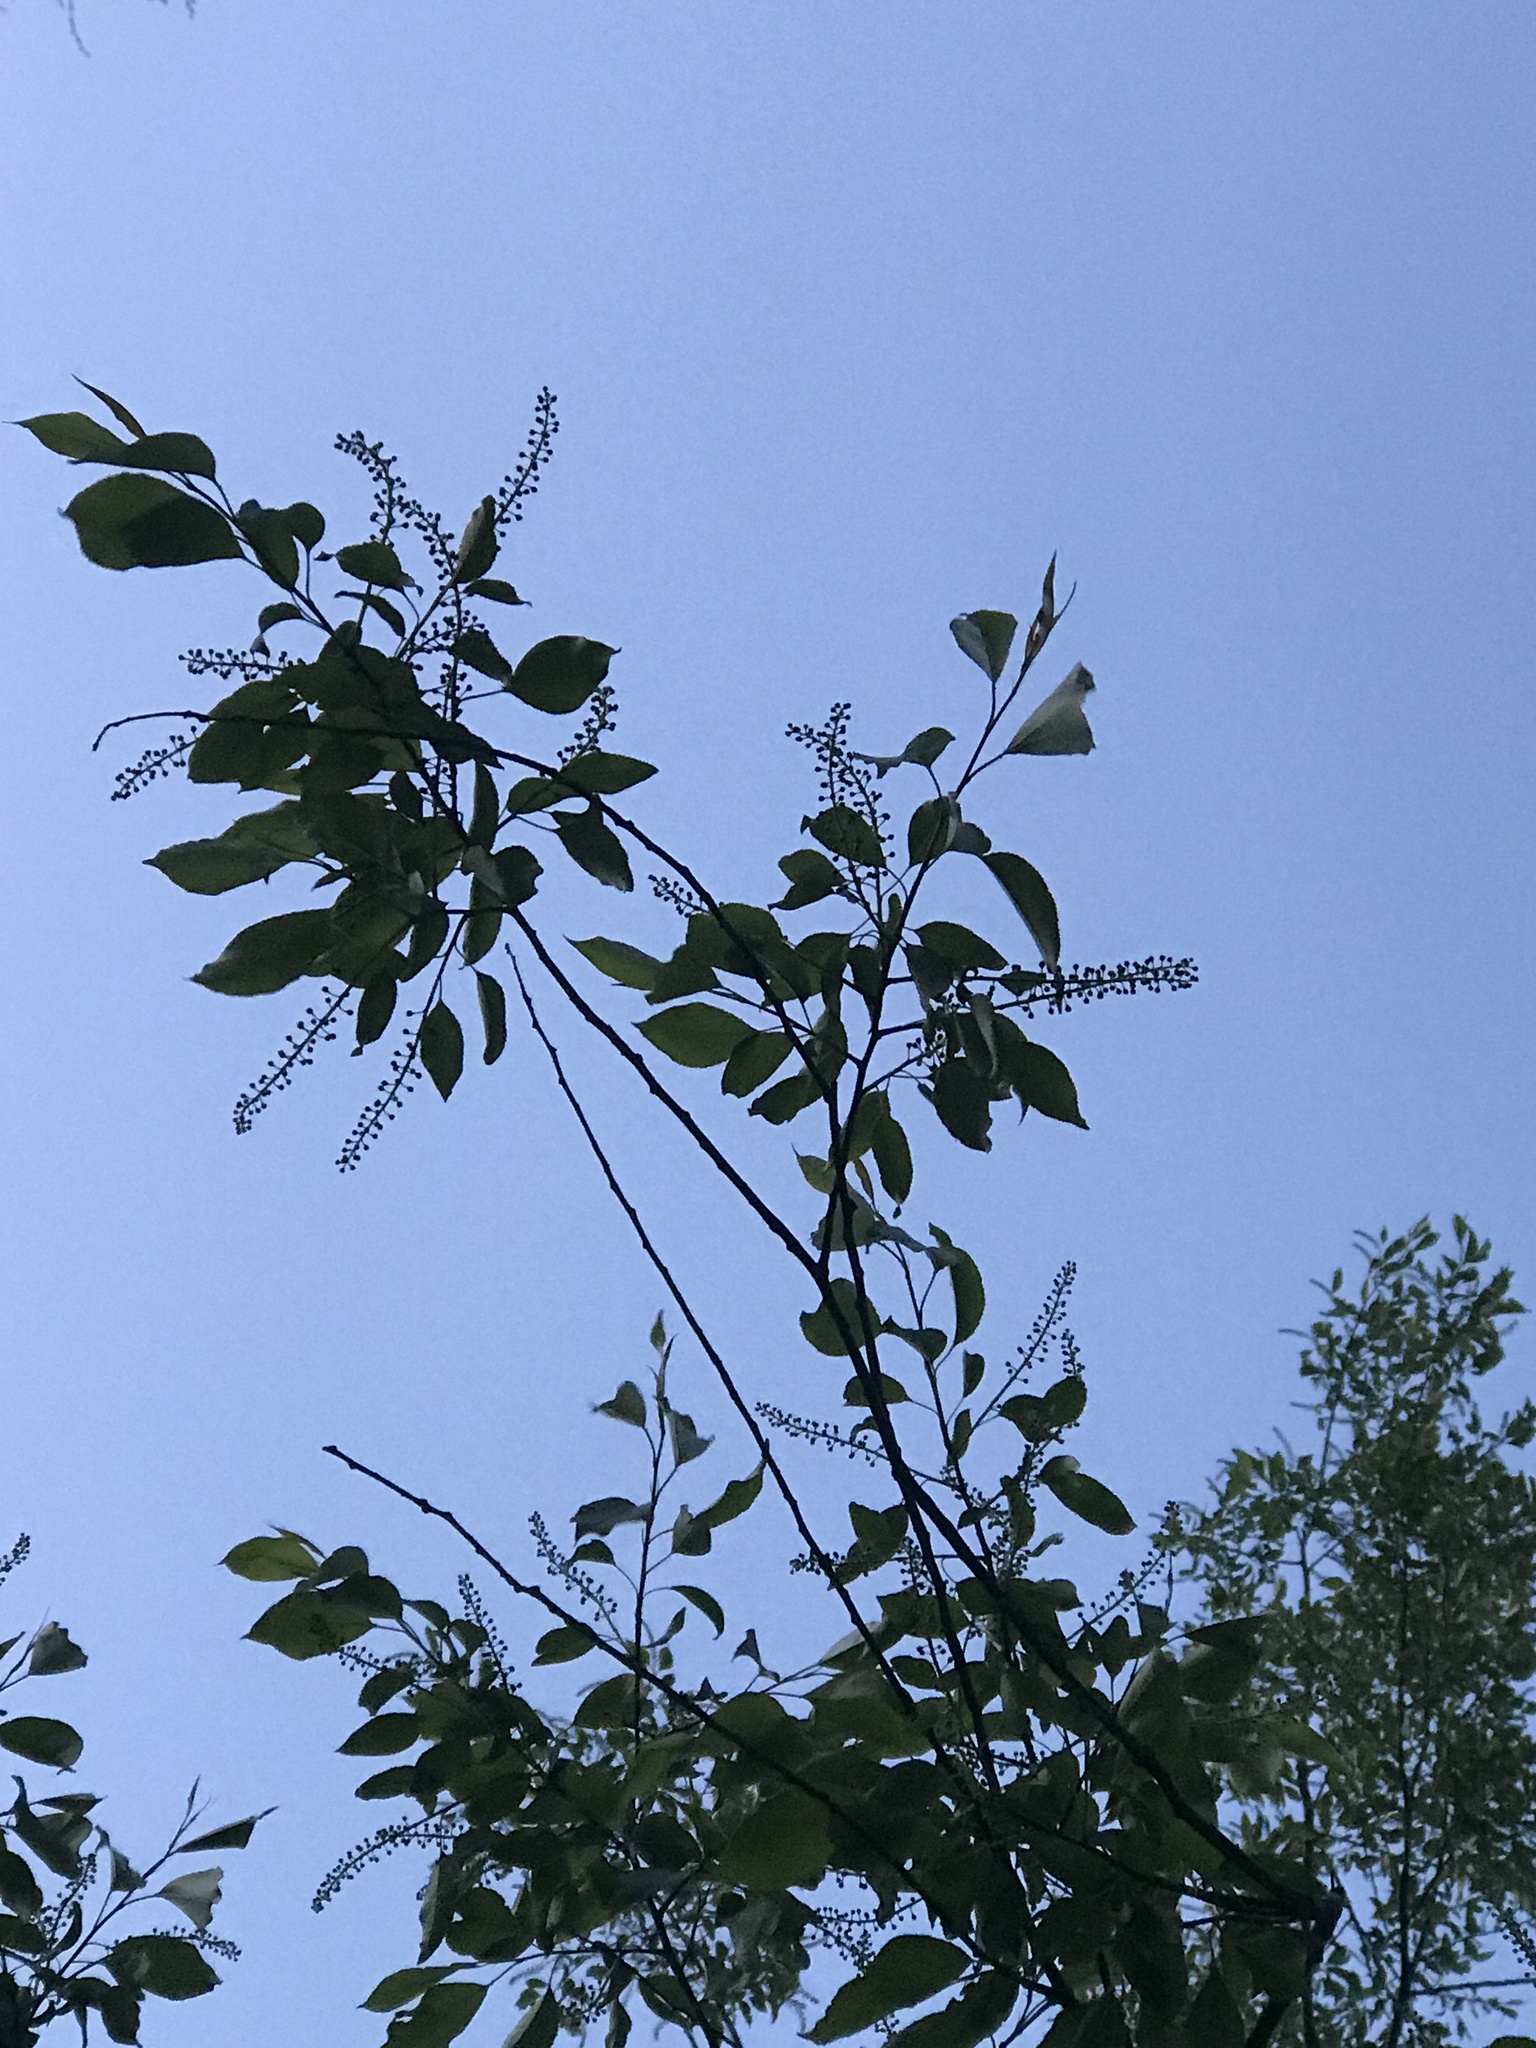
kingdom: Plantae
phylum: Tracheophyta
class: Magnoliopsida
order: Rosales
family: Rosaceae
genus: Prunus
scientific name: Prunus serotina
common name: Black cherry
